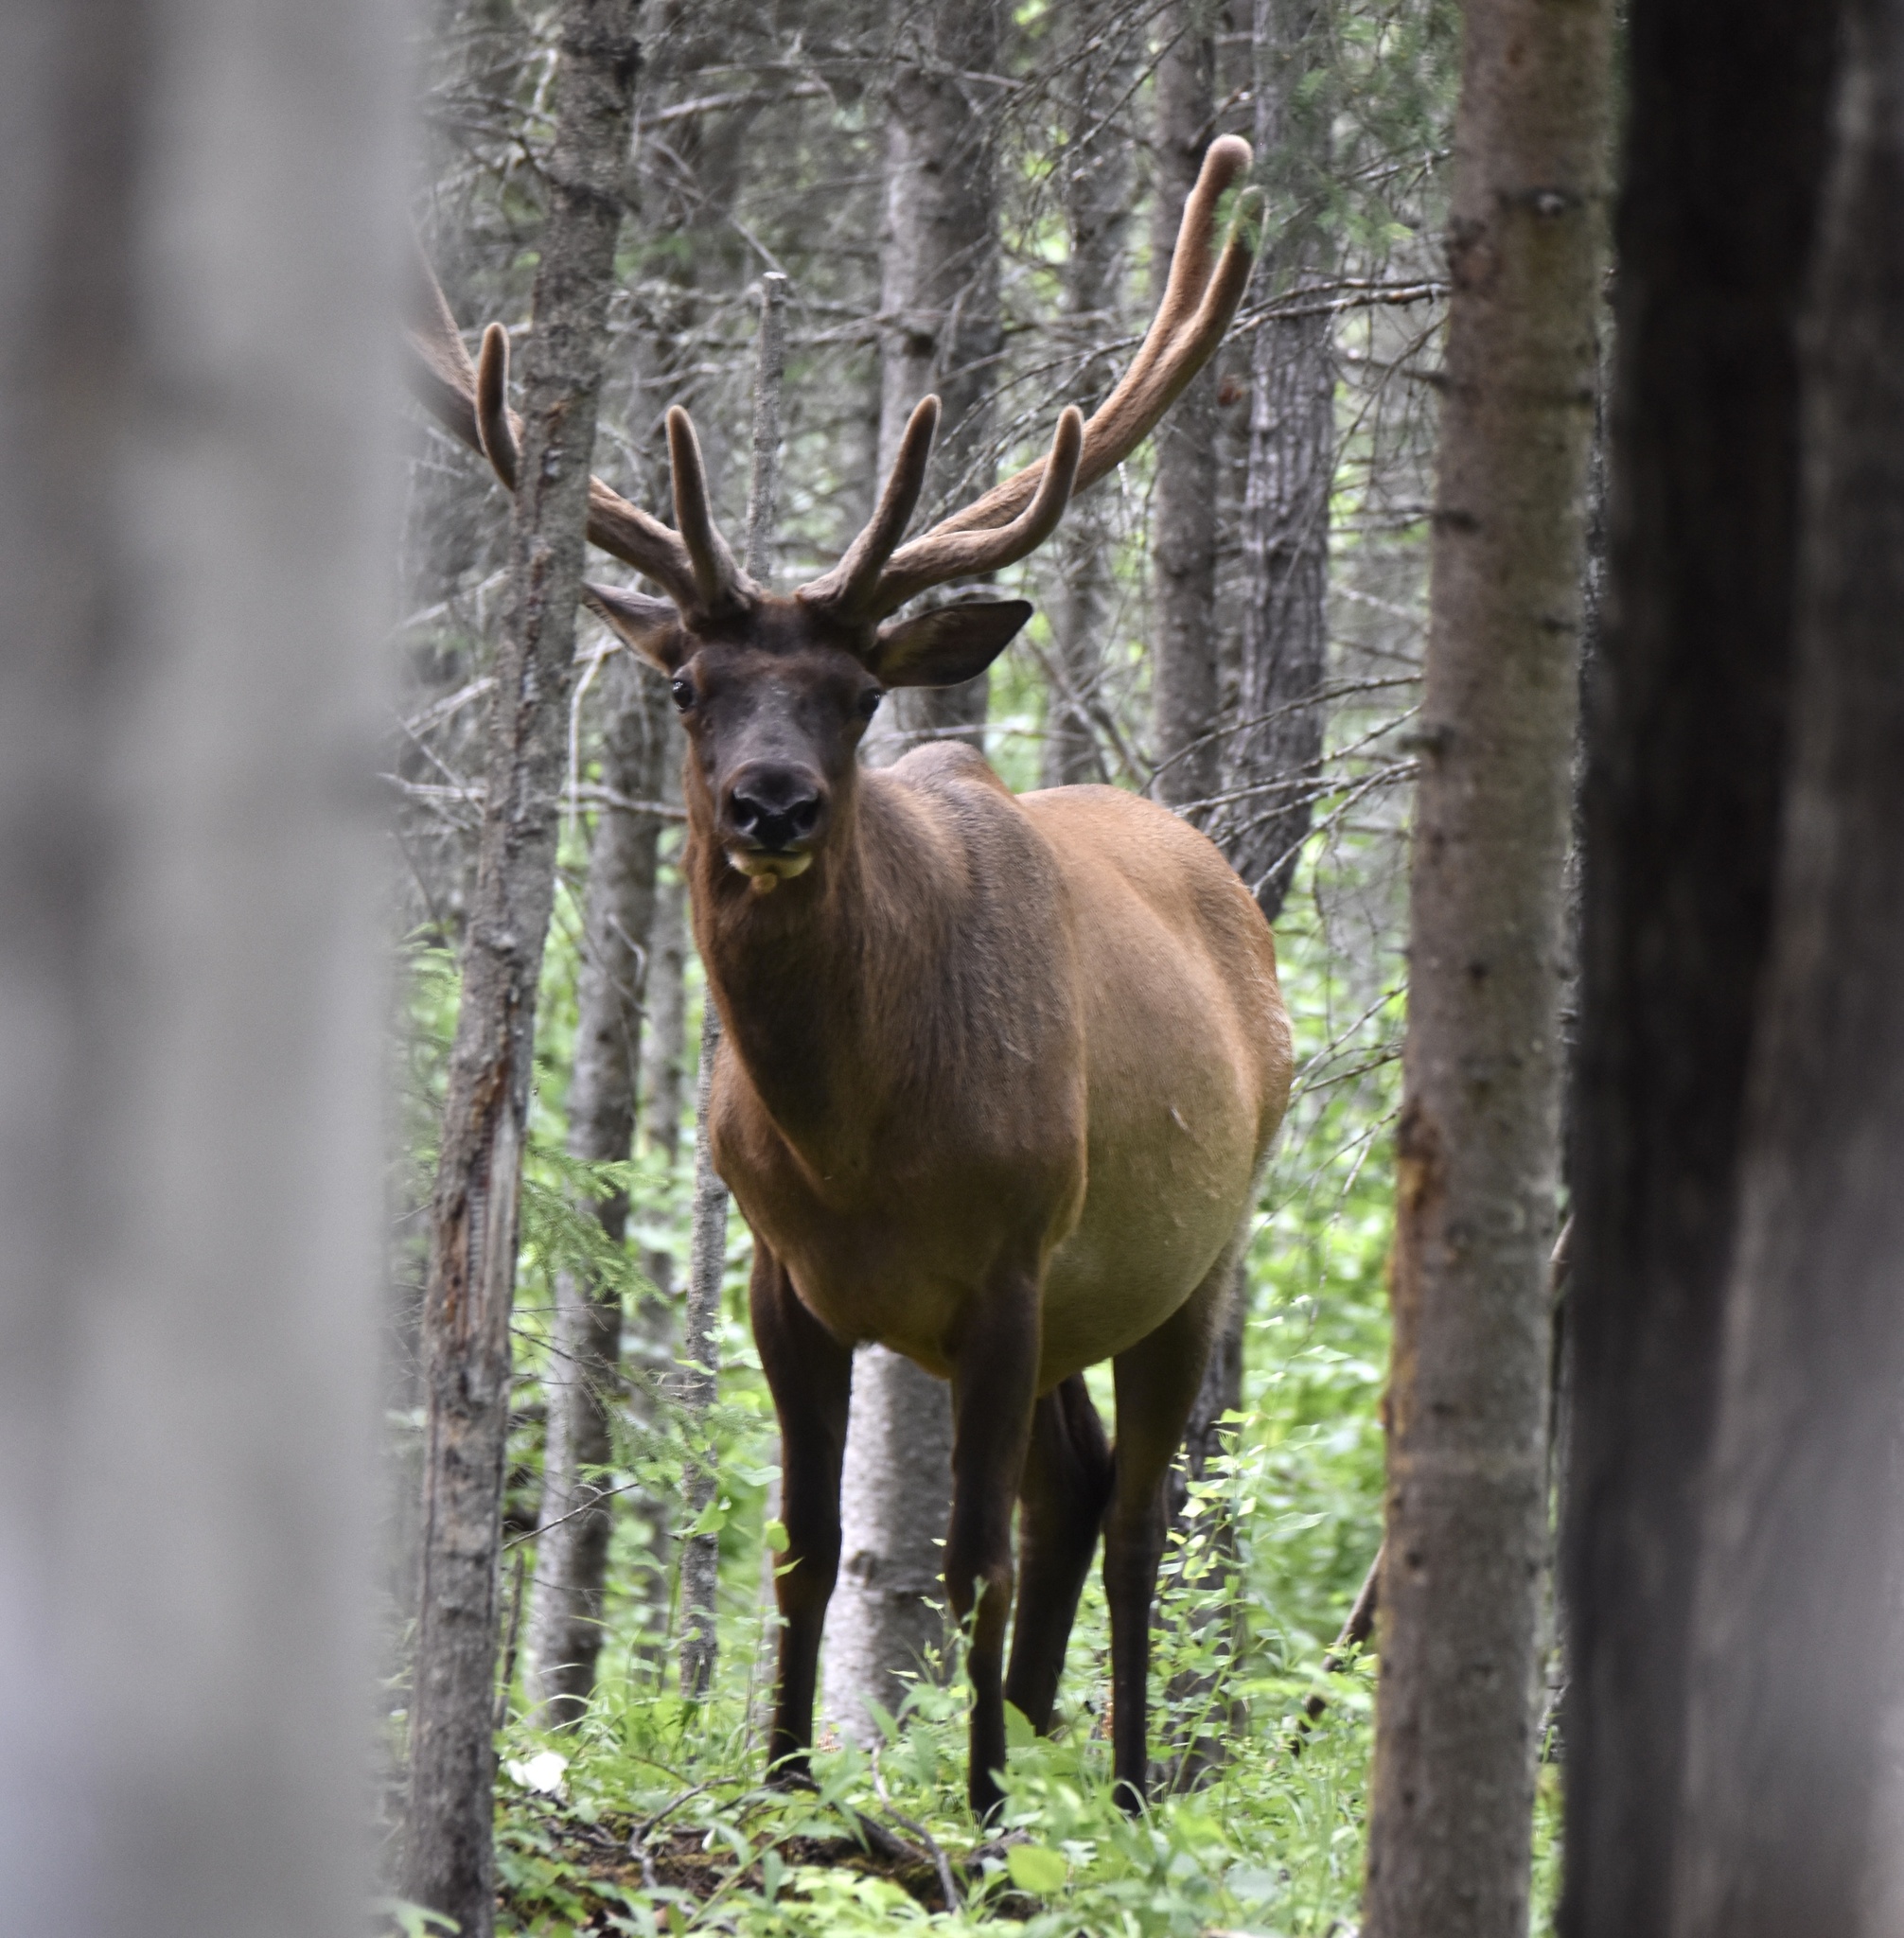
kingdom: Animalia
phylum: Chordata
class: Mammalia
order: Artiodactyla
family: Cervidae
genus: Cervus
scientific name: Cervus elaphus
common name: Red deer
